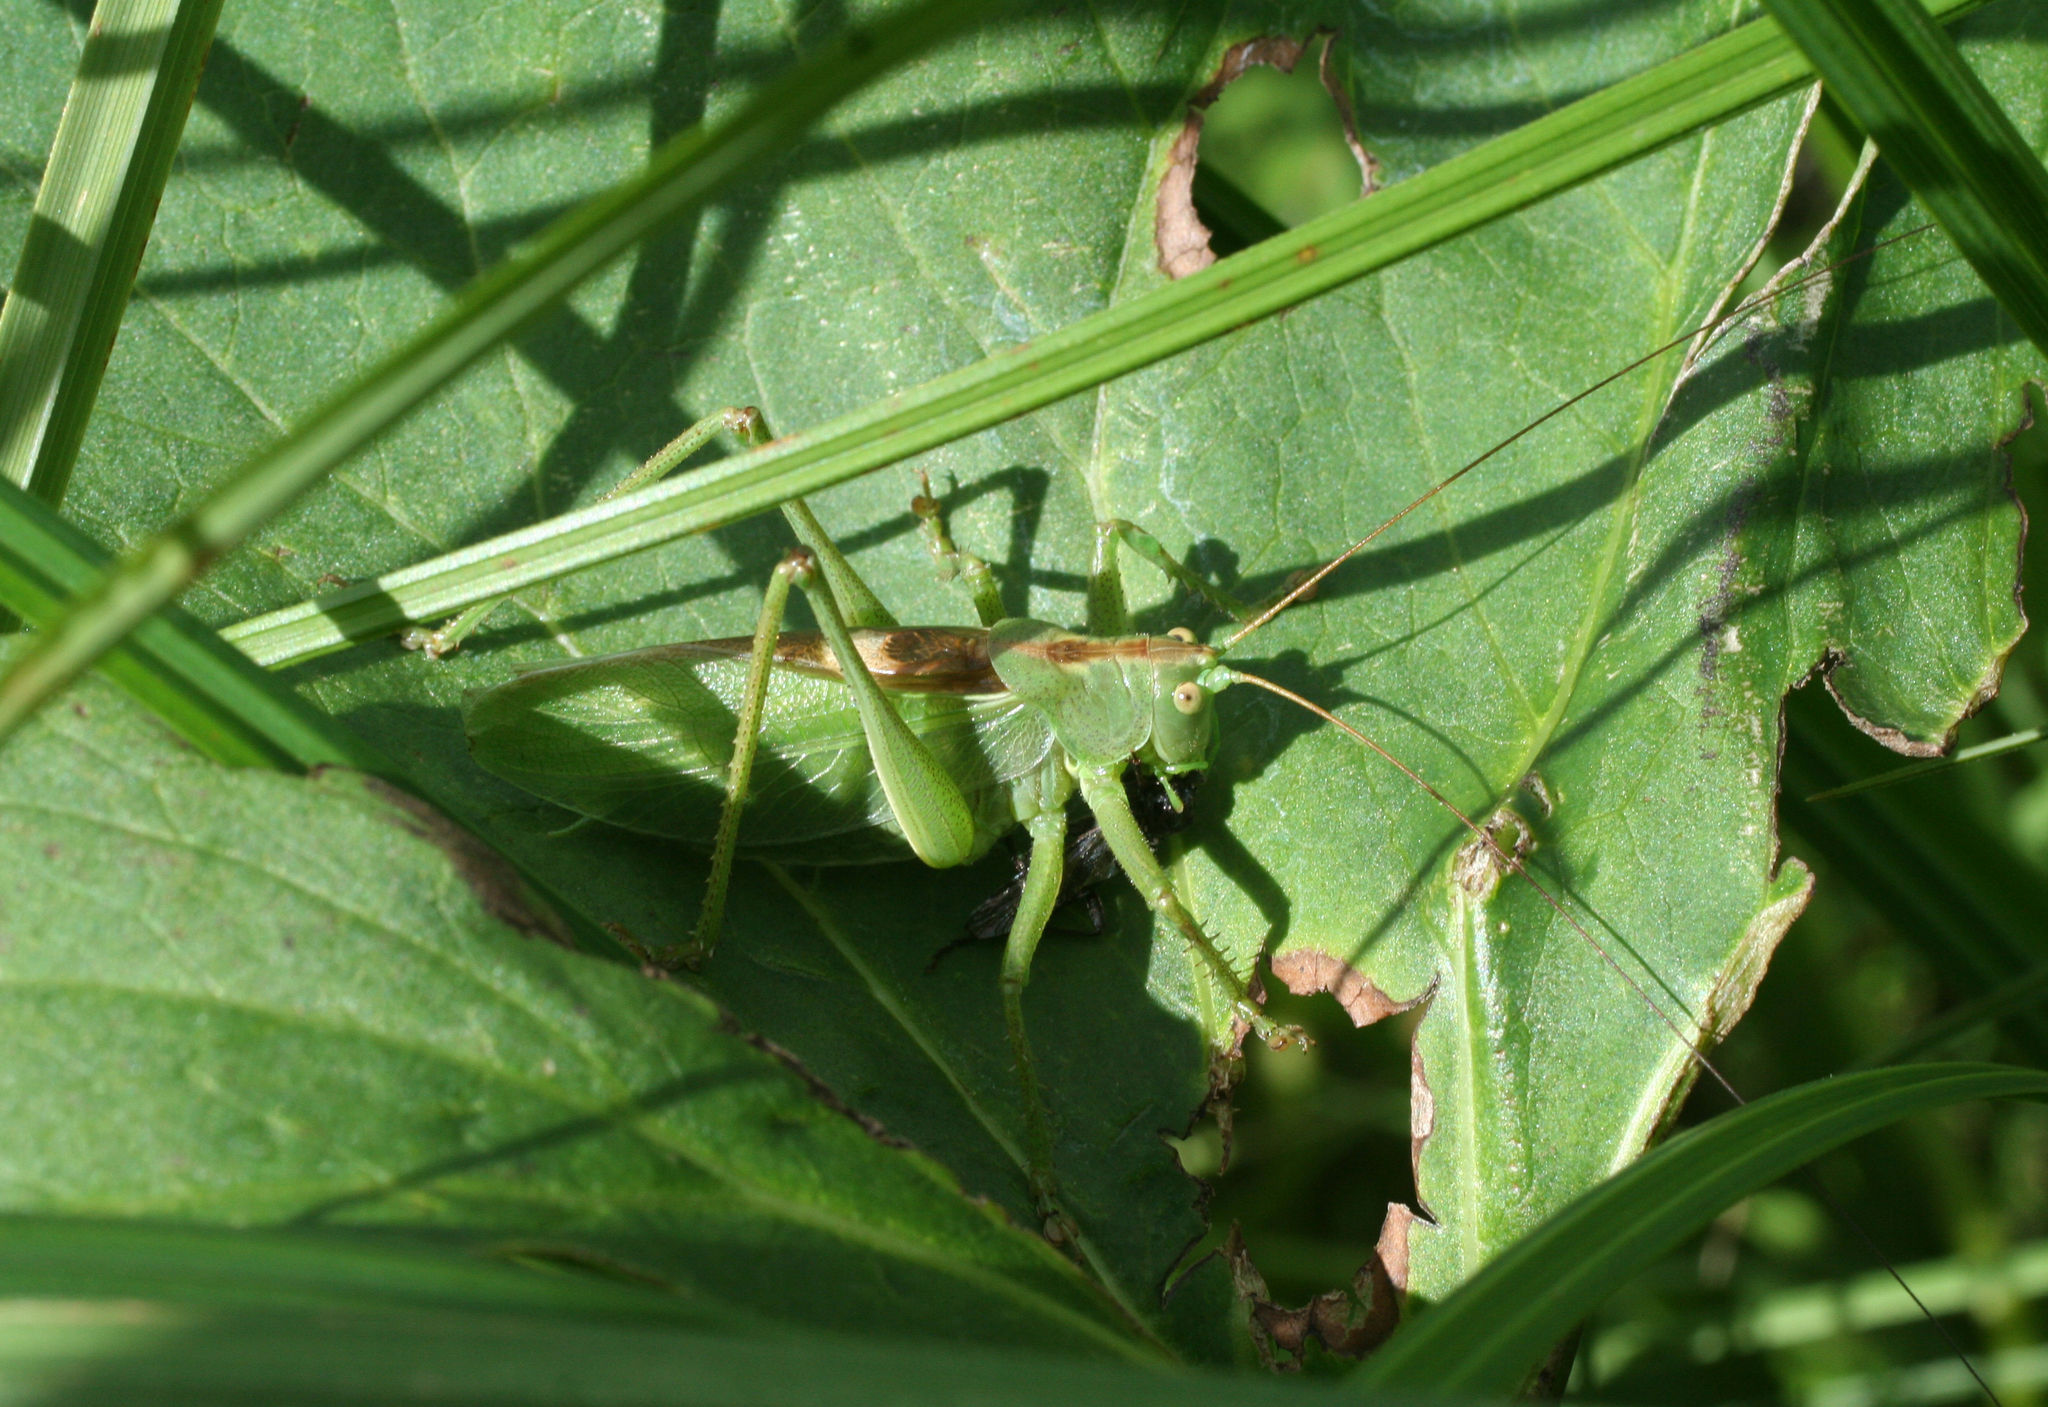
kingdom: Animalia
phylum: Arthropoda
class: Insecta
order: Orthoptera
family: Tettigoniidae
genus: Tettigonia
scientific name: Tettigonia cantans
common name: Upland green bush-cricket
